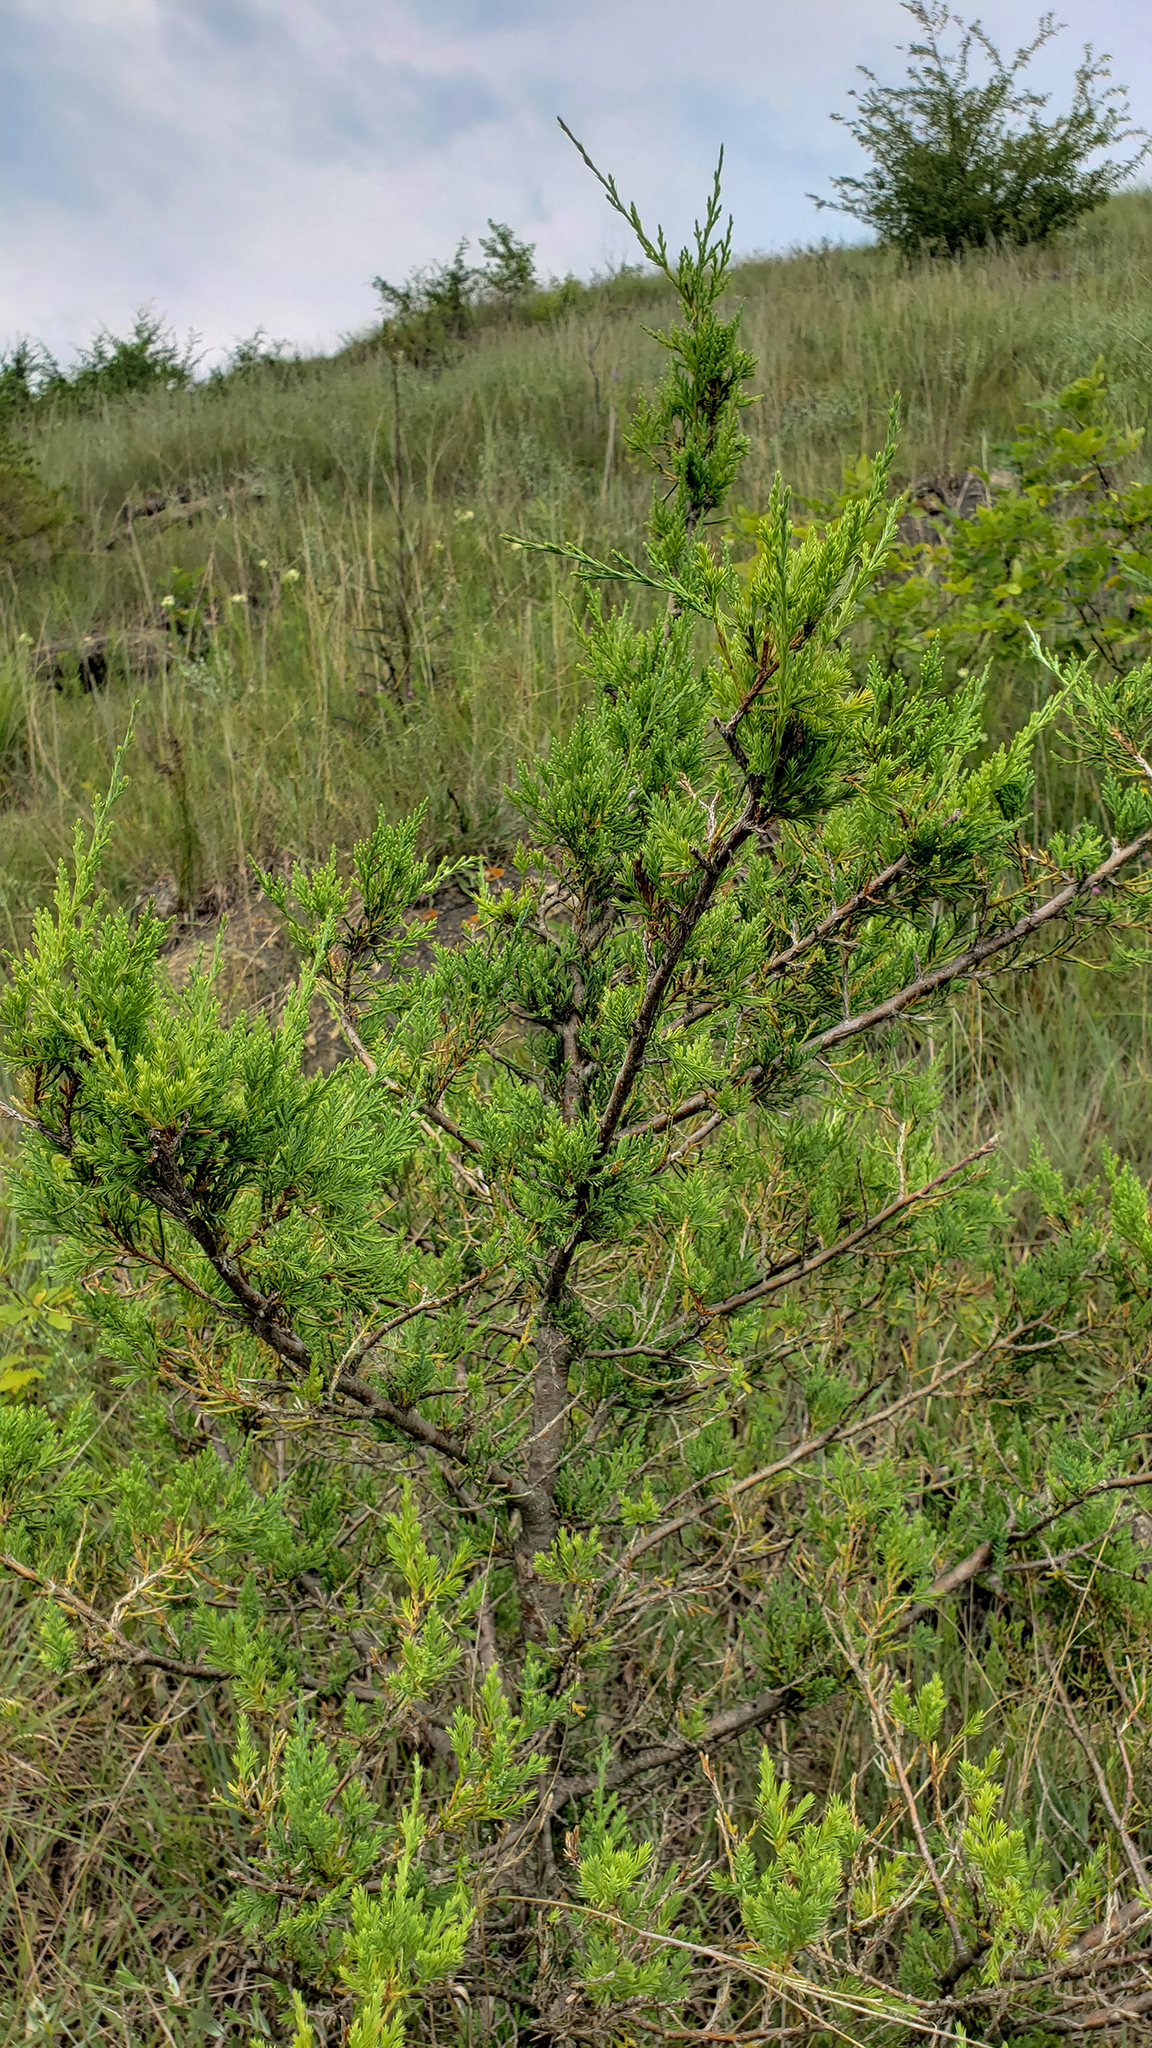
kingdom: Plantae
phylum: Tracheophyta
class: Pinopsida
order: Pinales
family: Cupressaceae
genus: Juniperus
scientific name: Juniperus virginiana
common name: Red juniper
